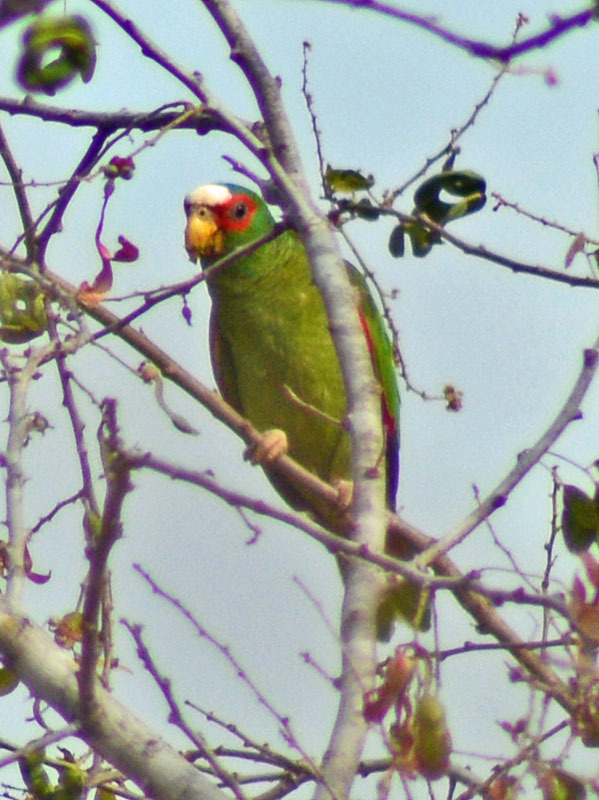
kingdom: Animalia
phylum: Chordata
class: Aves
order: Psittaciformes
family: Psittacidae
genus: Amazona
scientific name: Amazona albifrons
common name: White-fronted amazon
